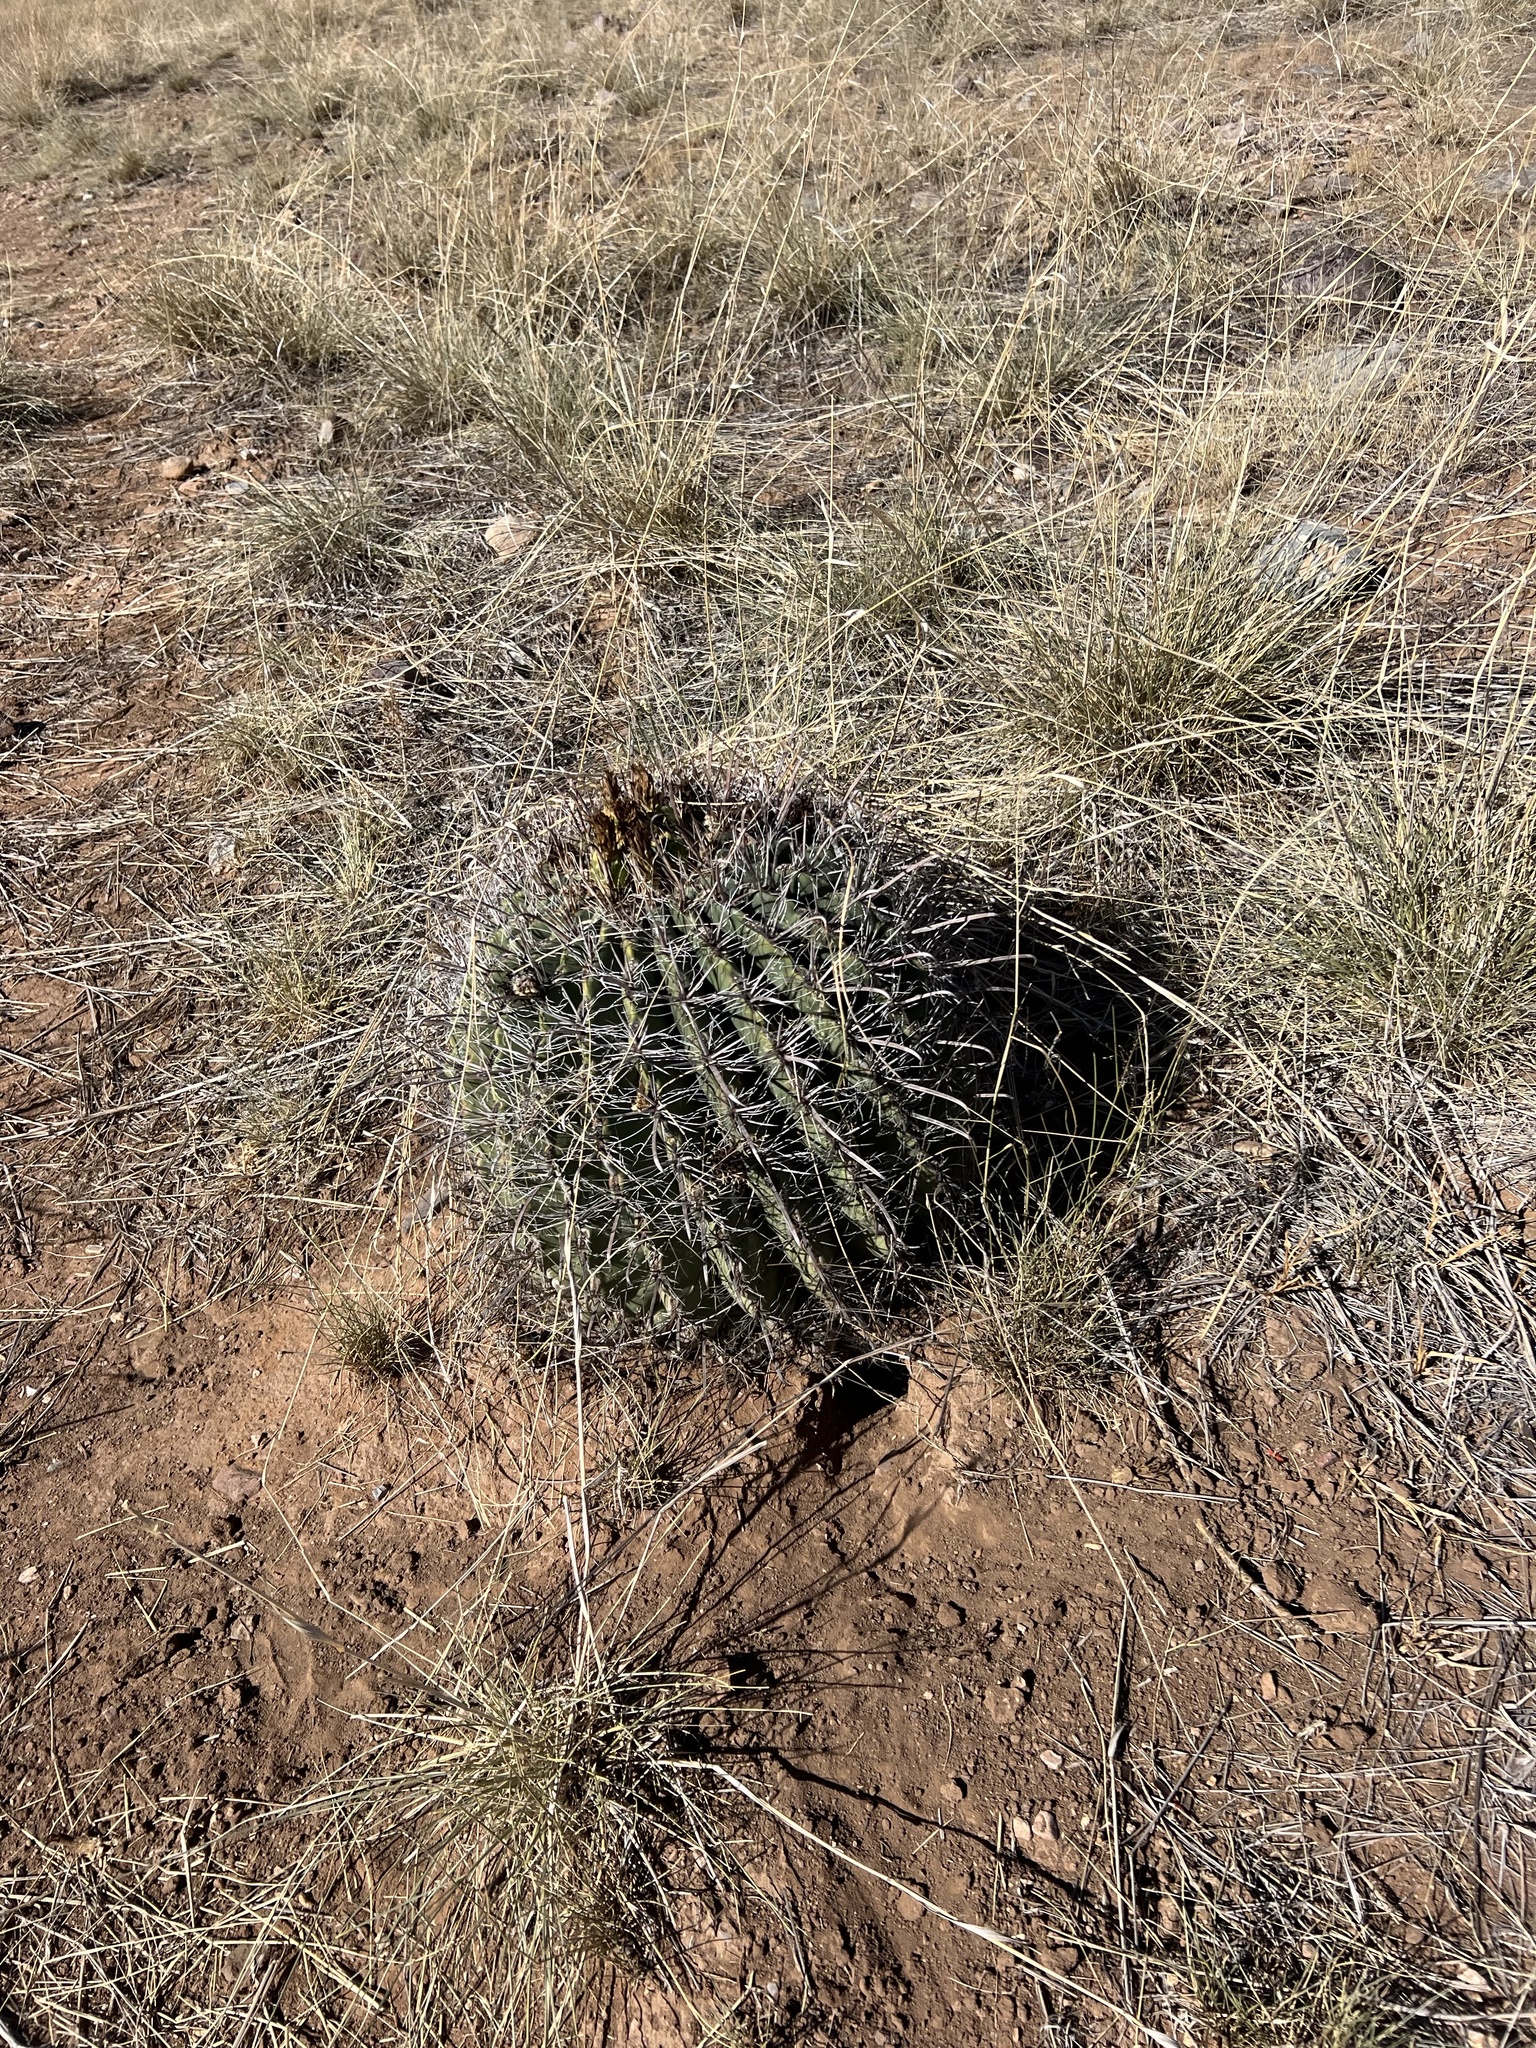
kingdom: Plantae
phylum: Tracheophyta
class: Magnoliopsida
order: Caryophyllales
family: Cactaceae
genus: Ferocactus
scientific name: Ferocactus wislizeni
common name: Candy barrel cactus
